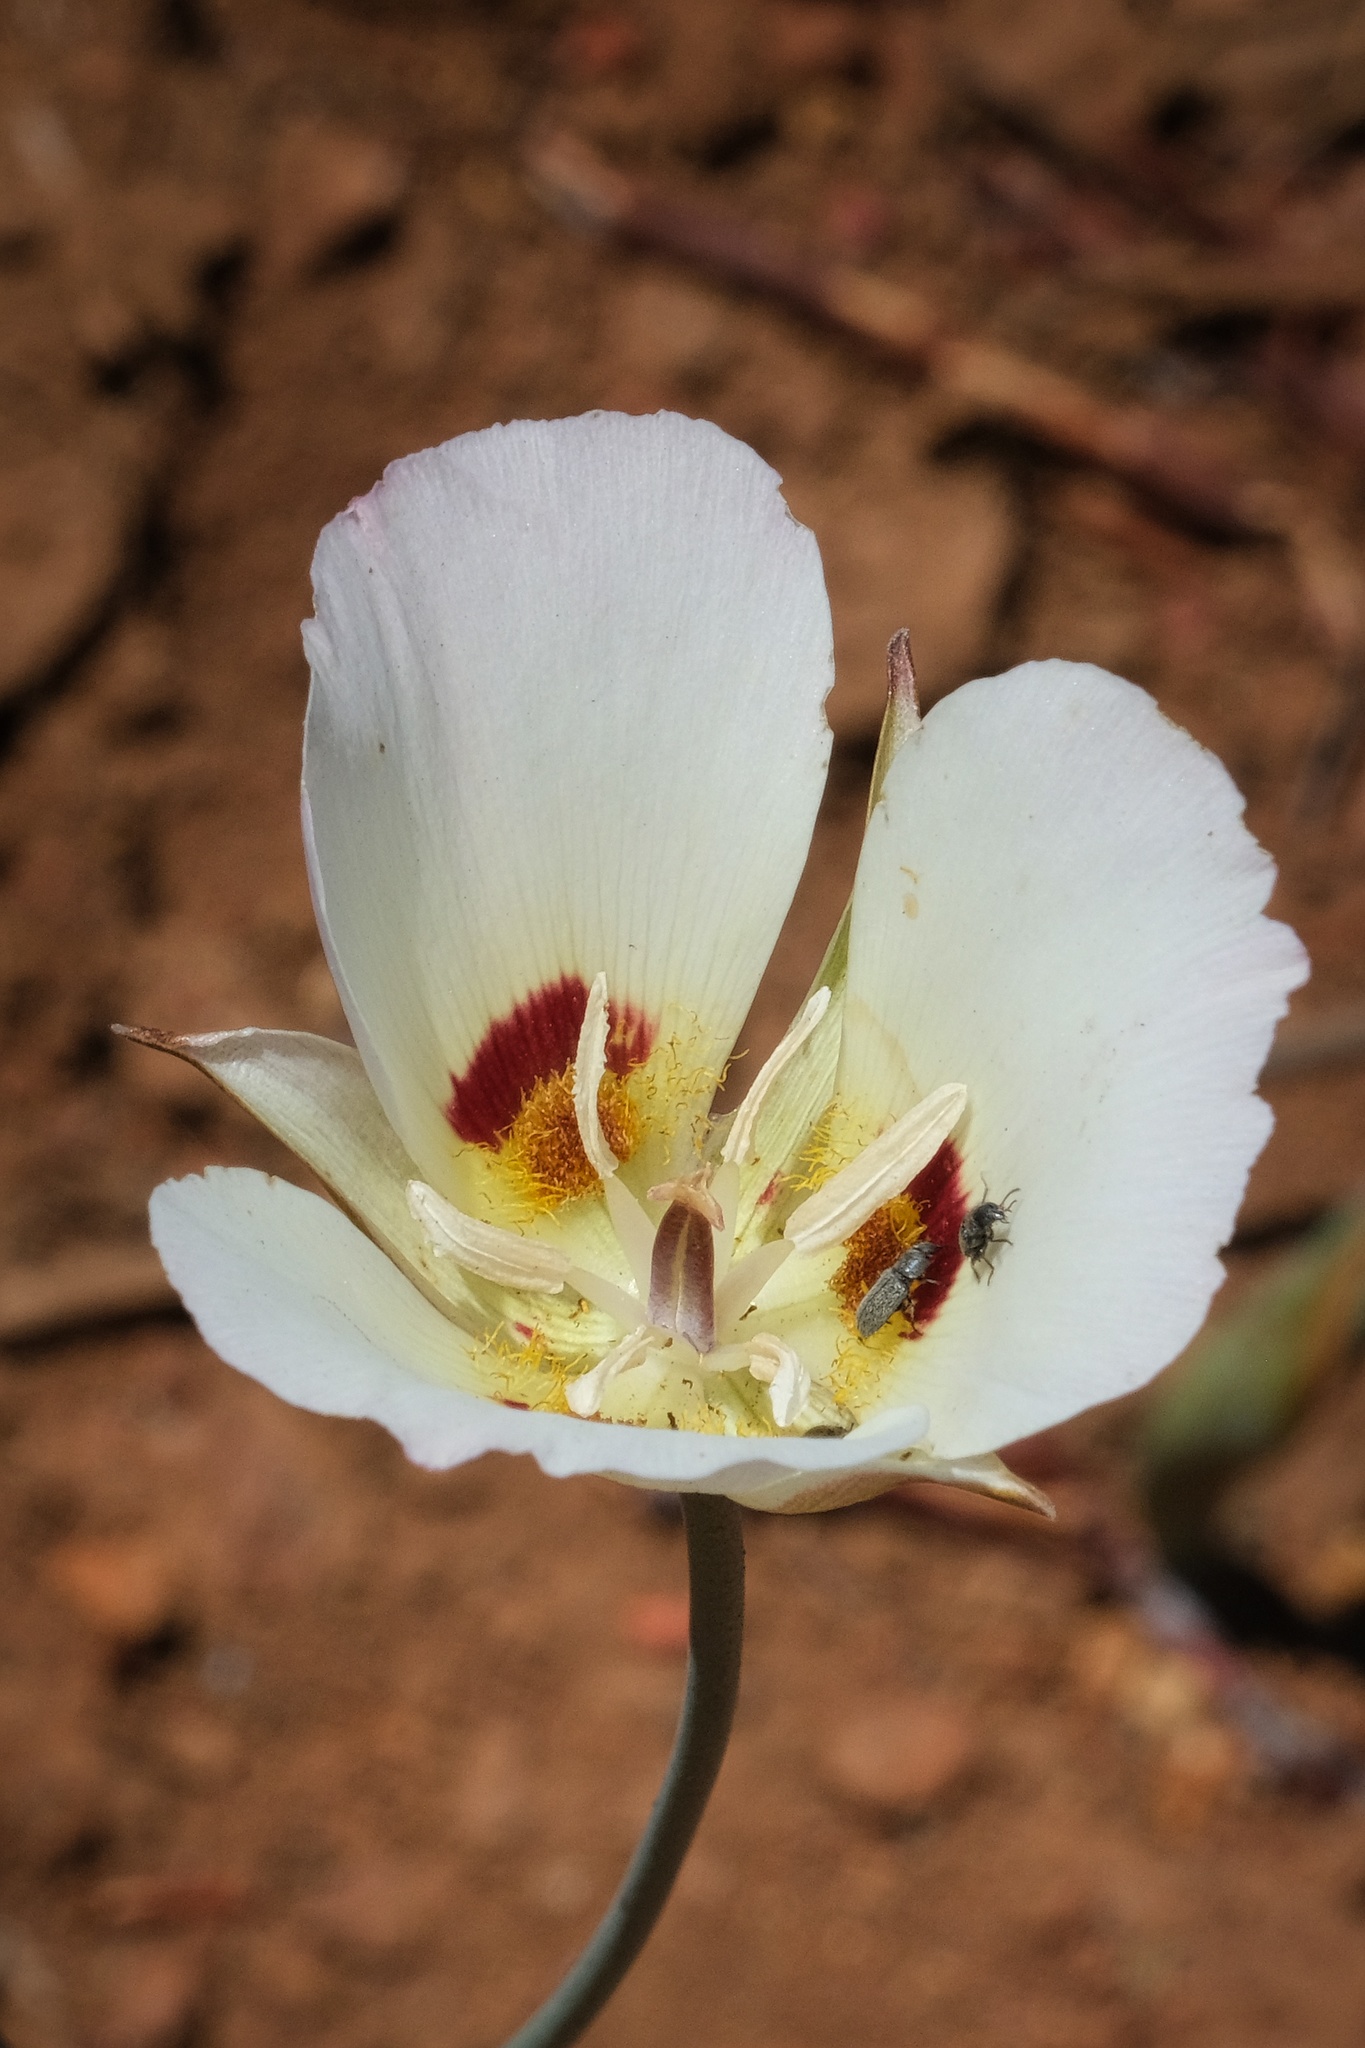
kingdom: Plantae
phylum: Tracheophyta
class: Liliopsida
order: Liliales
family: Liliaceae
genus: Calochortus
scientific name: Calochortus dunnii
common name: Dunn's mariposa-lily
